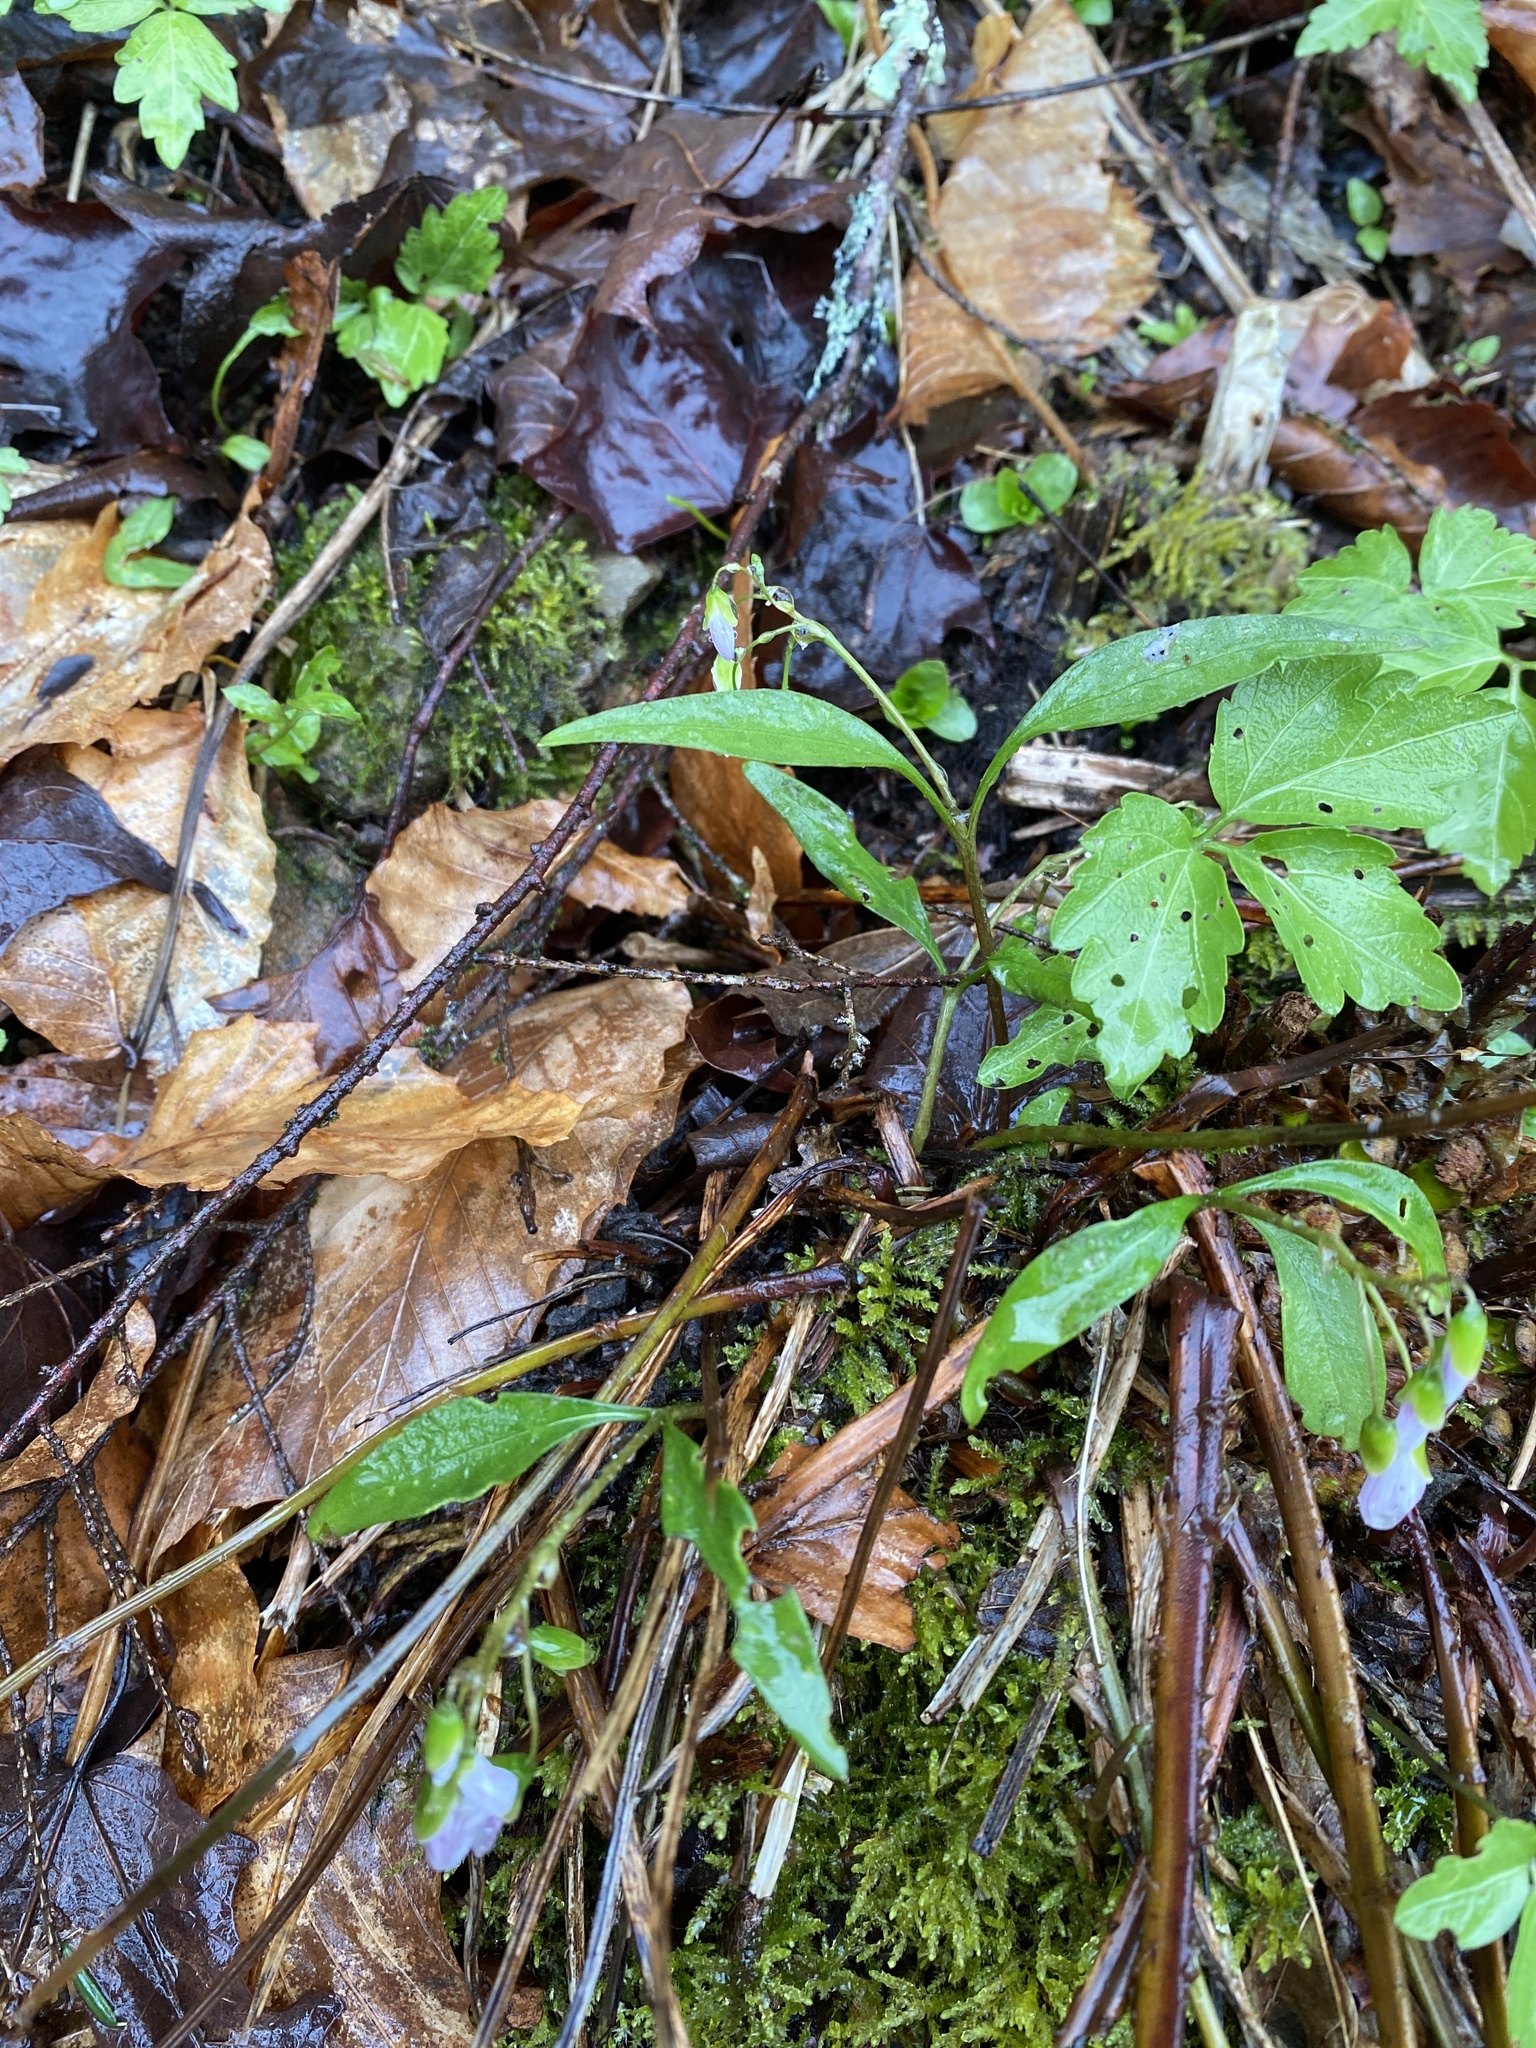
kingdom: Plantae
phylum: Tracheophyta
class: Magnoliopsida
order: Caryophyllales
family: Montiaceae
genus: Claytonia
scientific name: Claytonia caroliniana
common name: Carolina spring beauty
